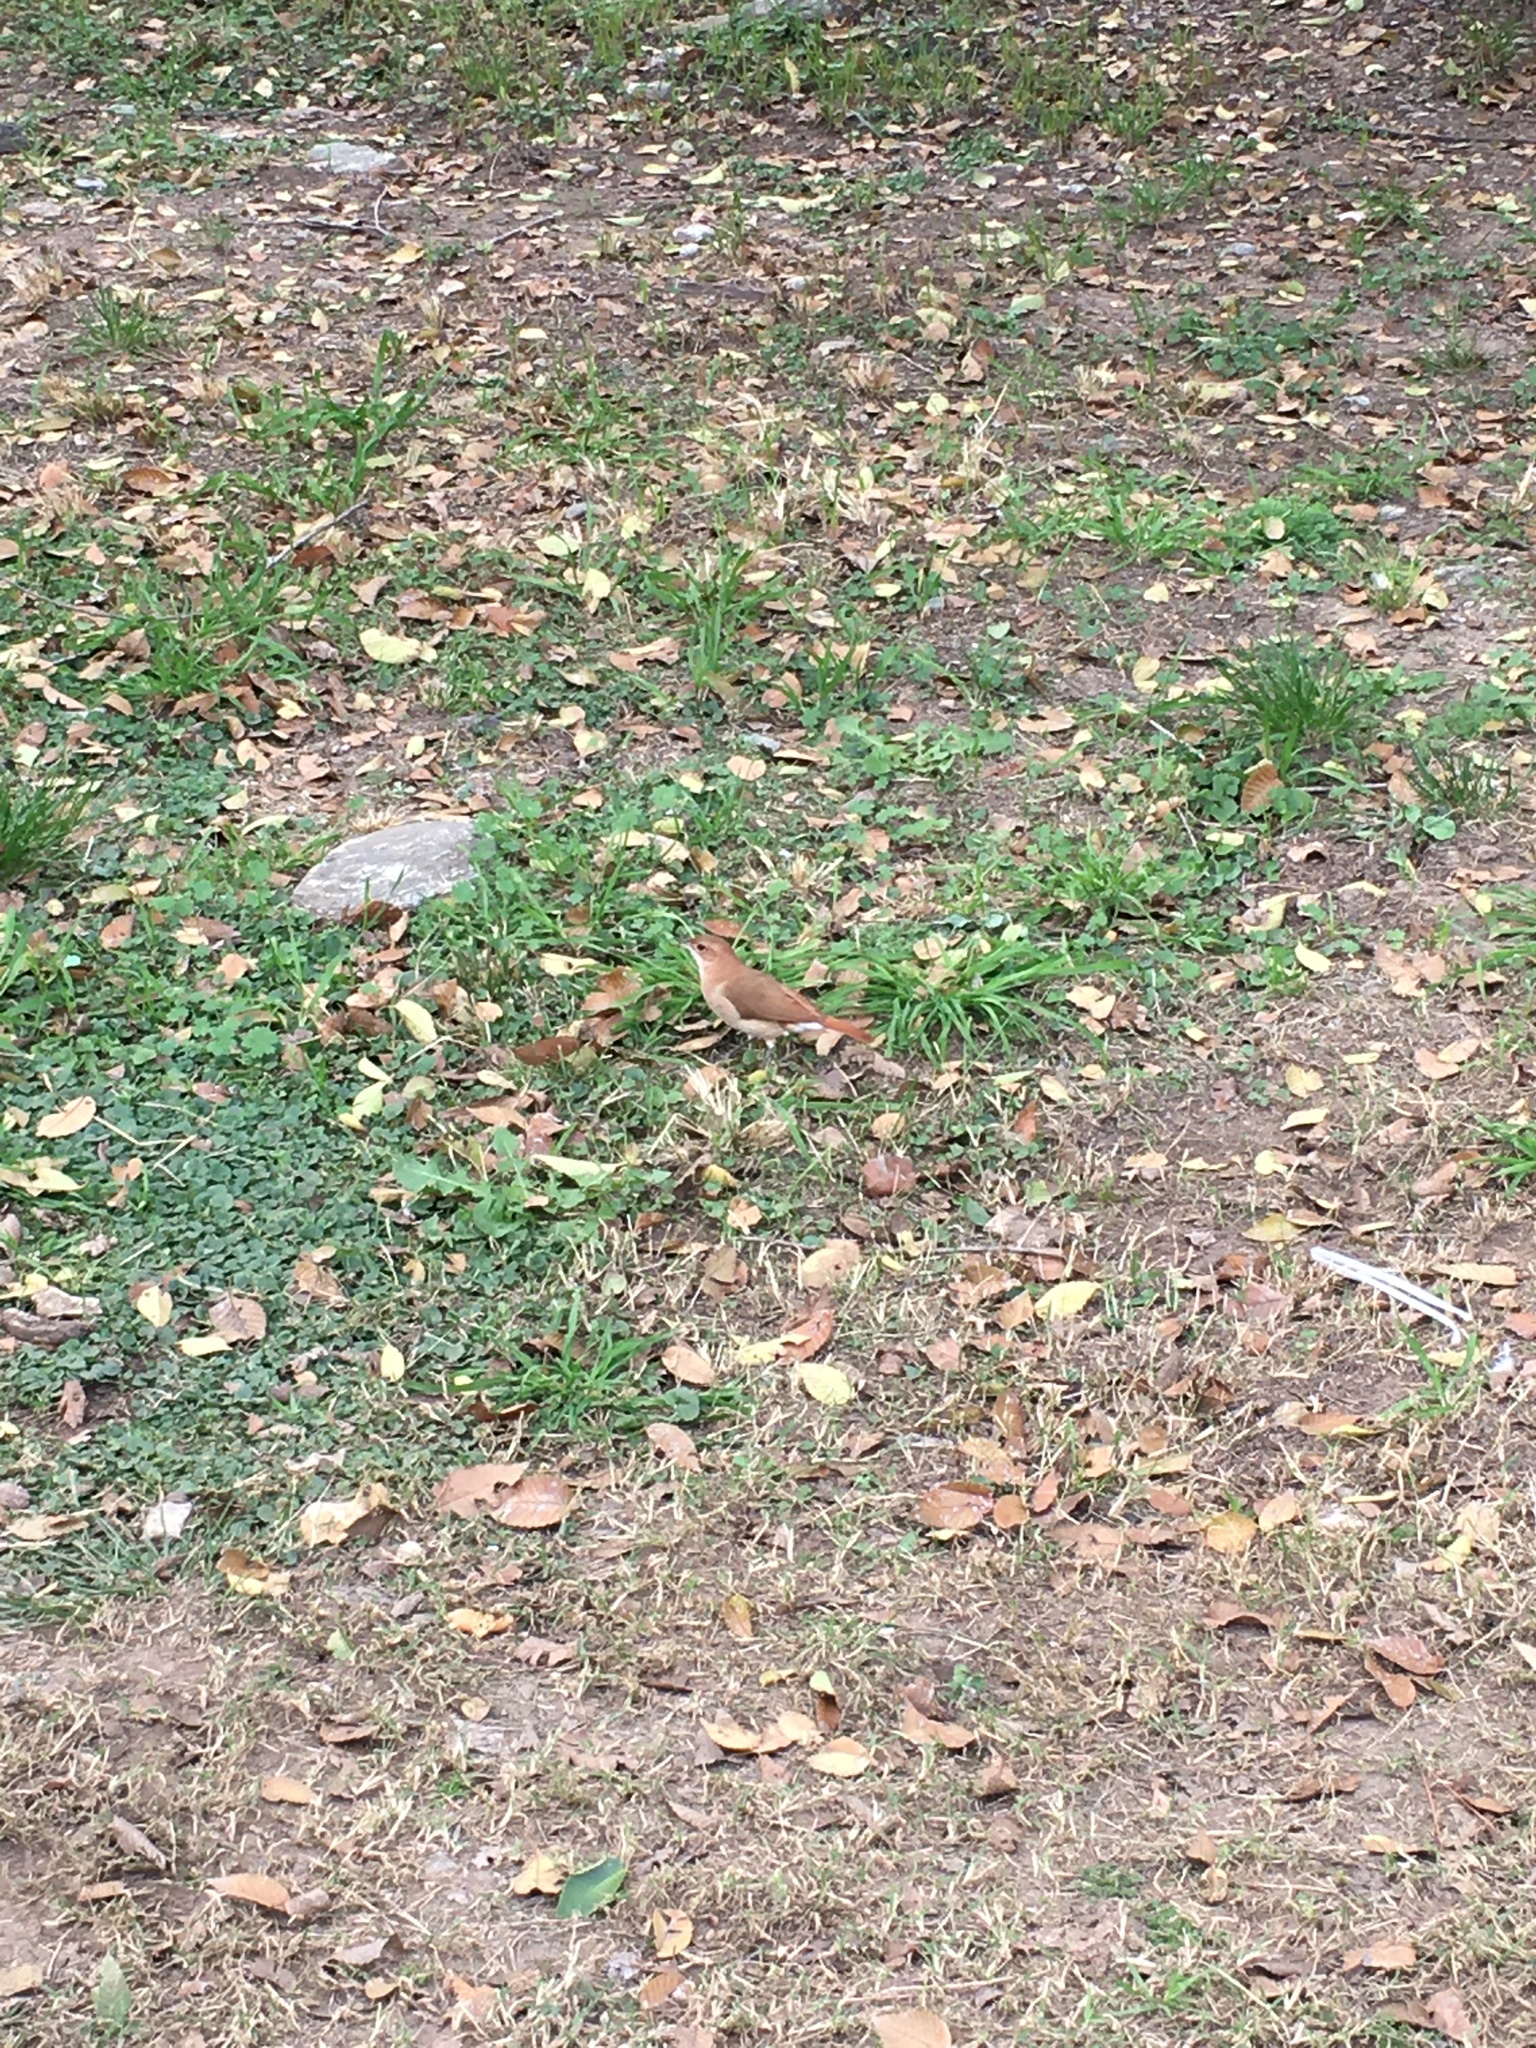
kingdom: Animalia
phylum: Chordata
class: Aves
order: Passeriformes
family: Furnariidae
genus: Furnarius
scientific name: Furnarius rufus
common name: Rufous hornero
